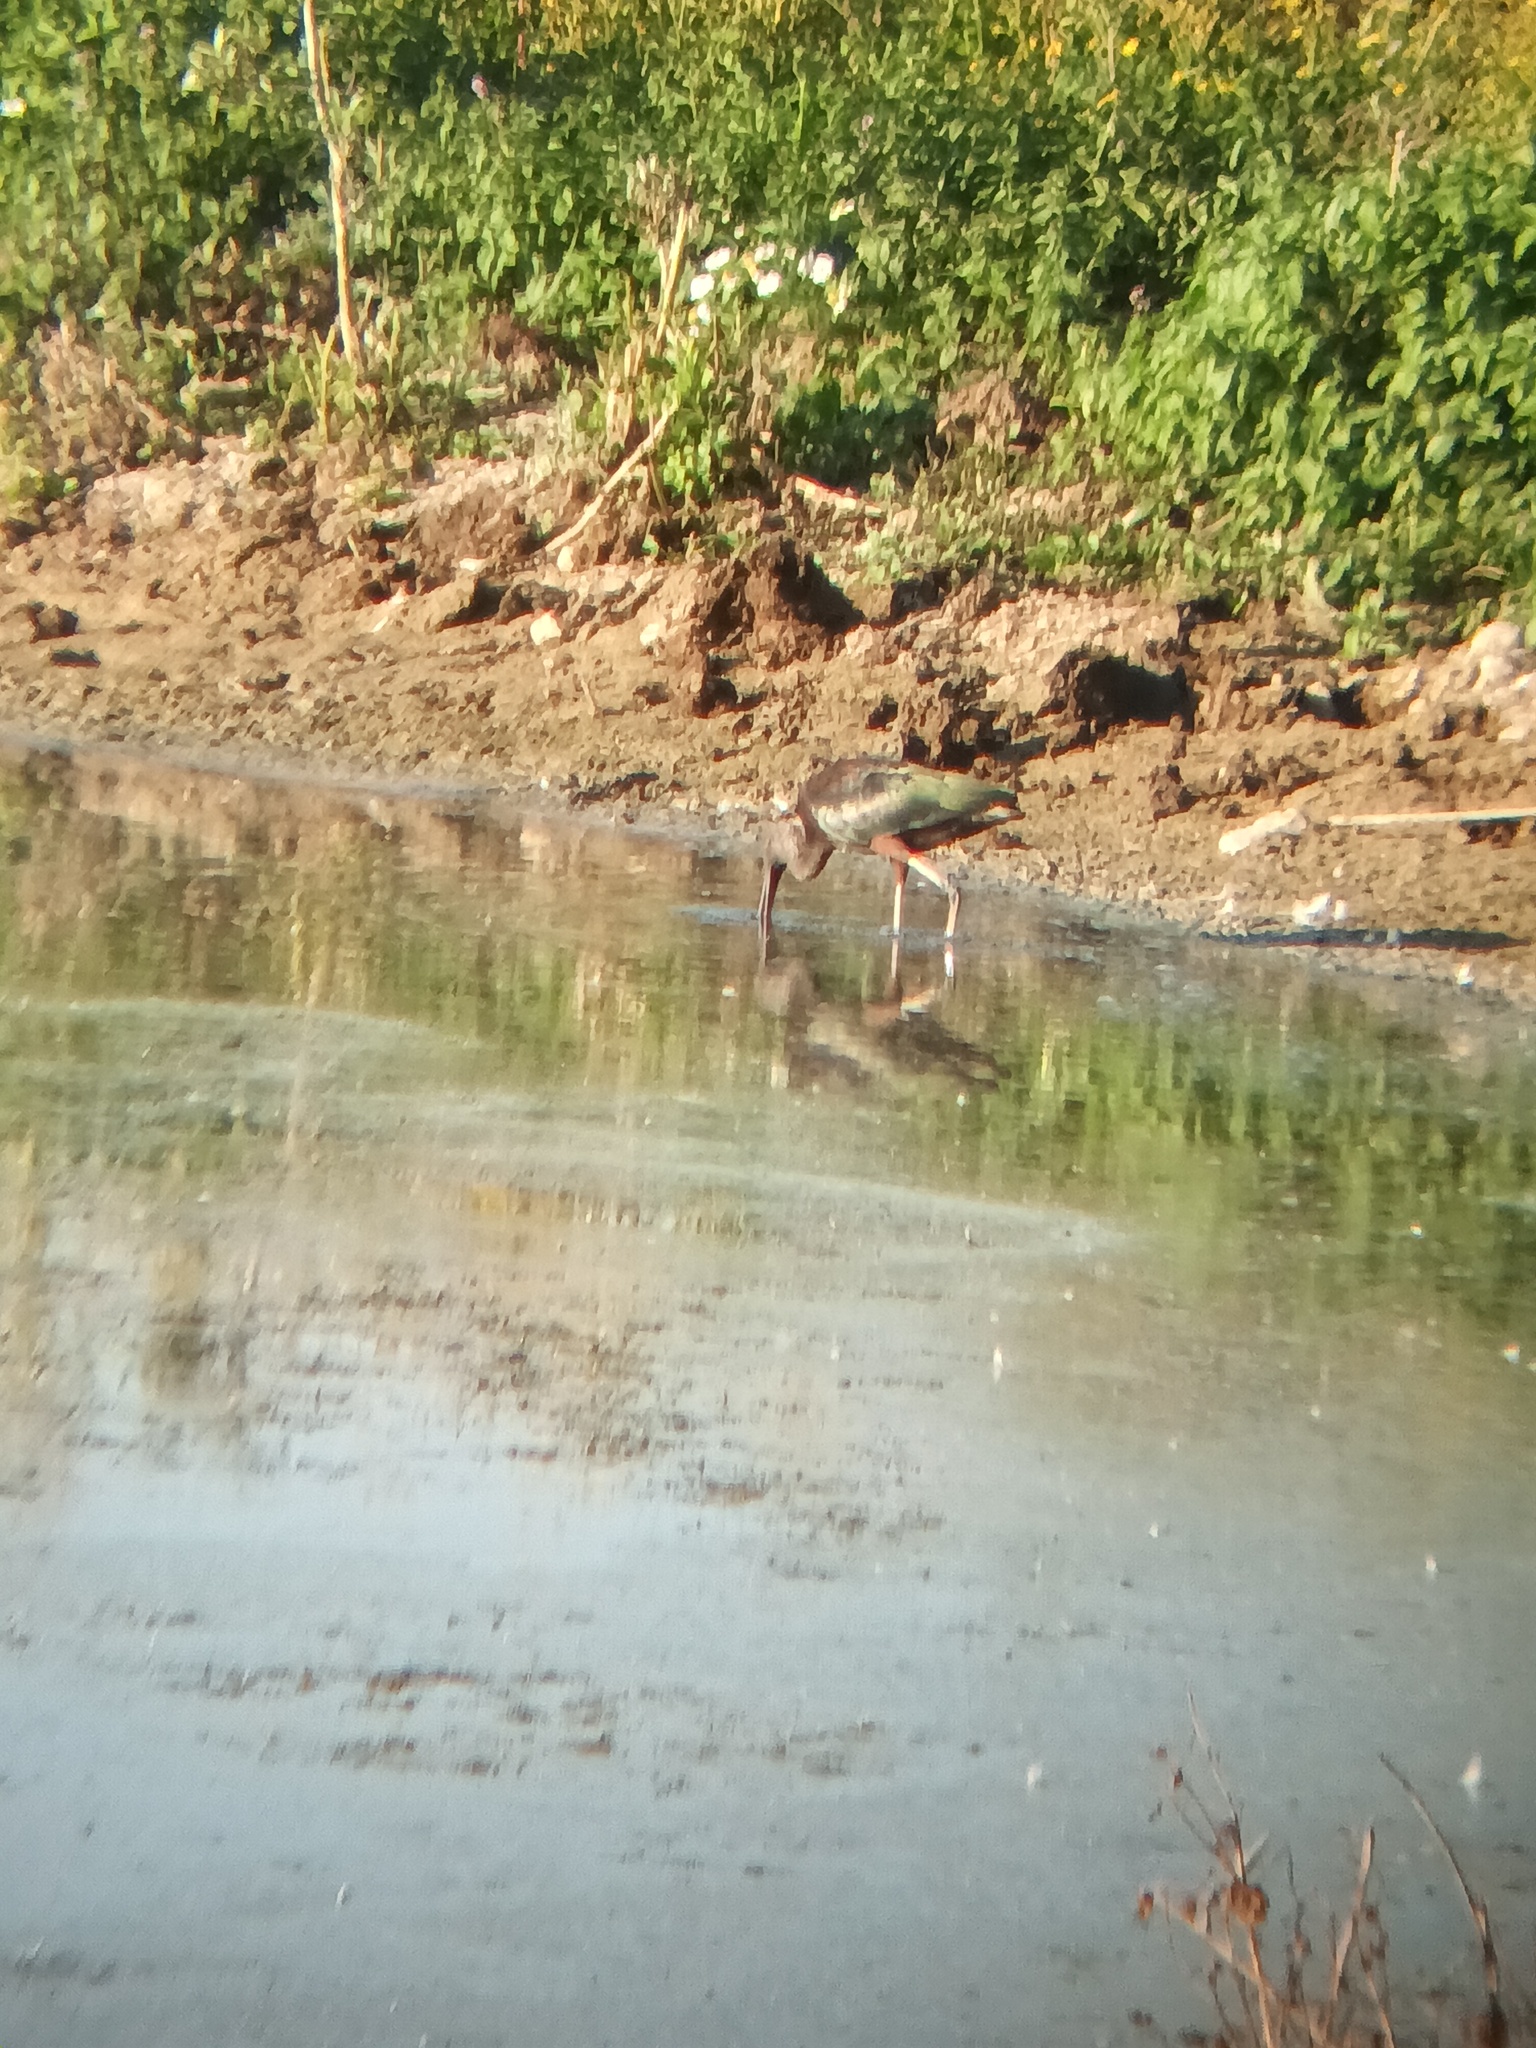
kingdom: Animalia
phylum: Chordata
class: Aves
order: Pelecaniformes
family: Threskiornithidae
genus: Plegadis
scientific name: Plegadis falcinellus
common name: Glossy ibis
